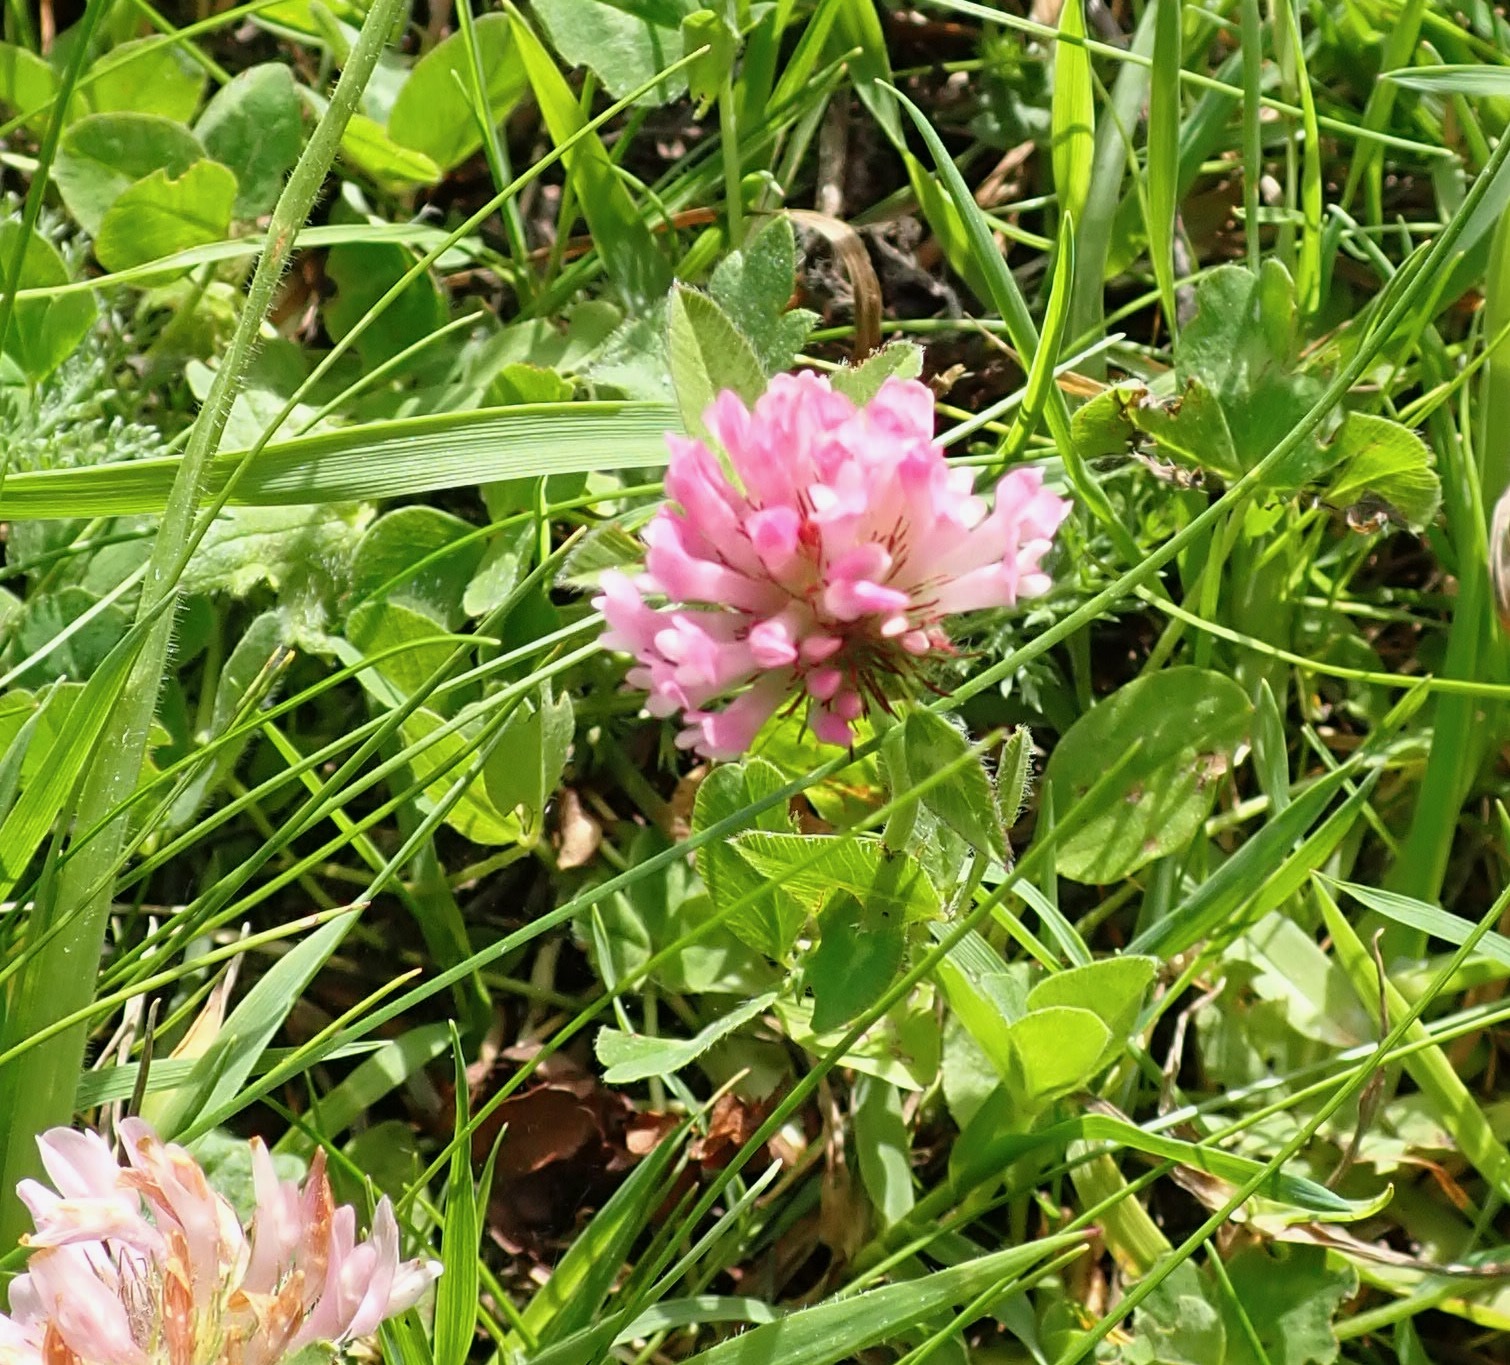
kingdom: Plantae
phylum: Tracheophyta
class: Magnoliopsida
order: Fabales
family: Fabaceae
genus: Trifolium
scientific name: Trifolium pratense
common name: Red clover
